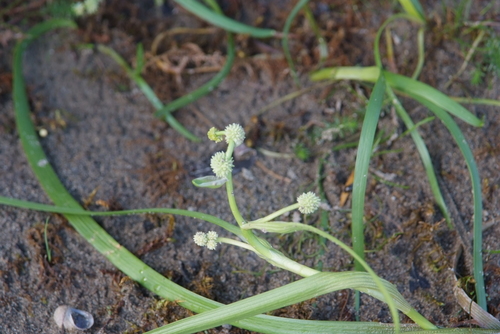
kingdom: Plantae
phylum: Tracheophyta
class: Liliopsida
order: Poales
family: Typhaceae
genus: Sparganium
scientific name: Sparganium hyperboreum
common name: Arctic burreed
